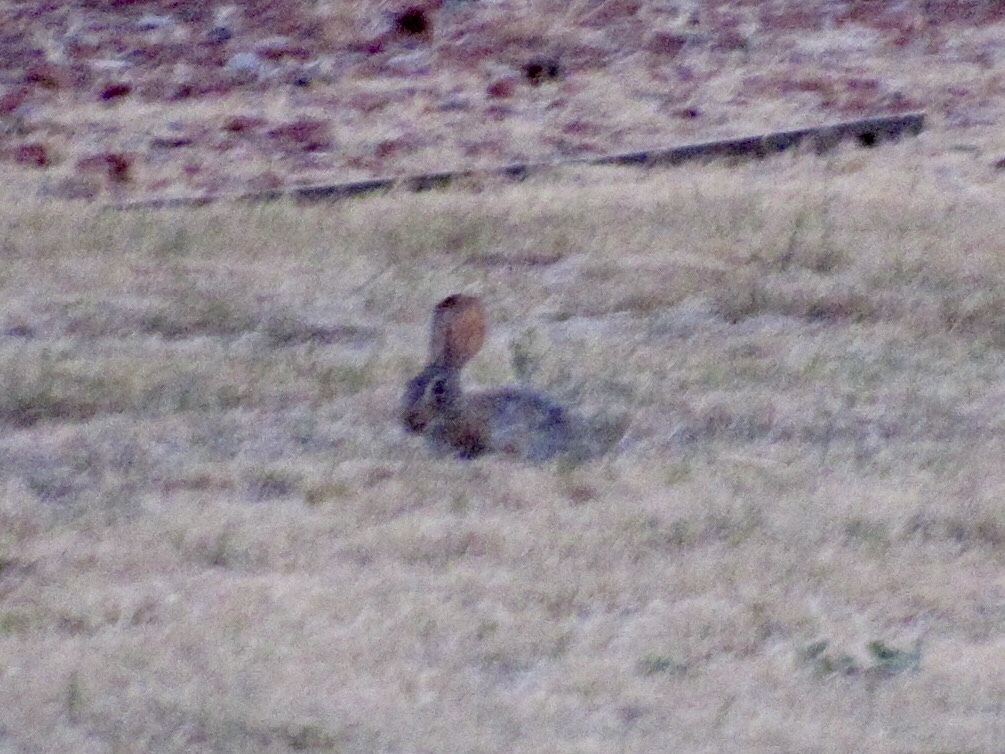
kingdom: Animalia
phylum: Chordata
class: Mammalia
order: Lagomorpha
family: Leporidae
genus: Sylvilagus
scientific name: Sylvilagus audubonii
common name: Desert cottontail
